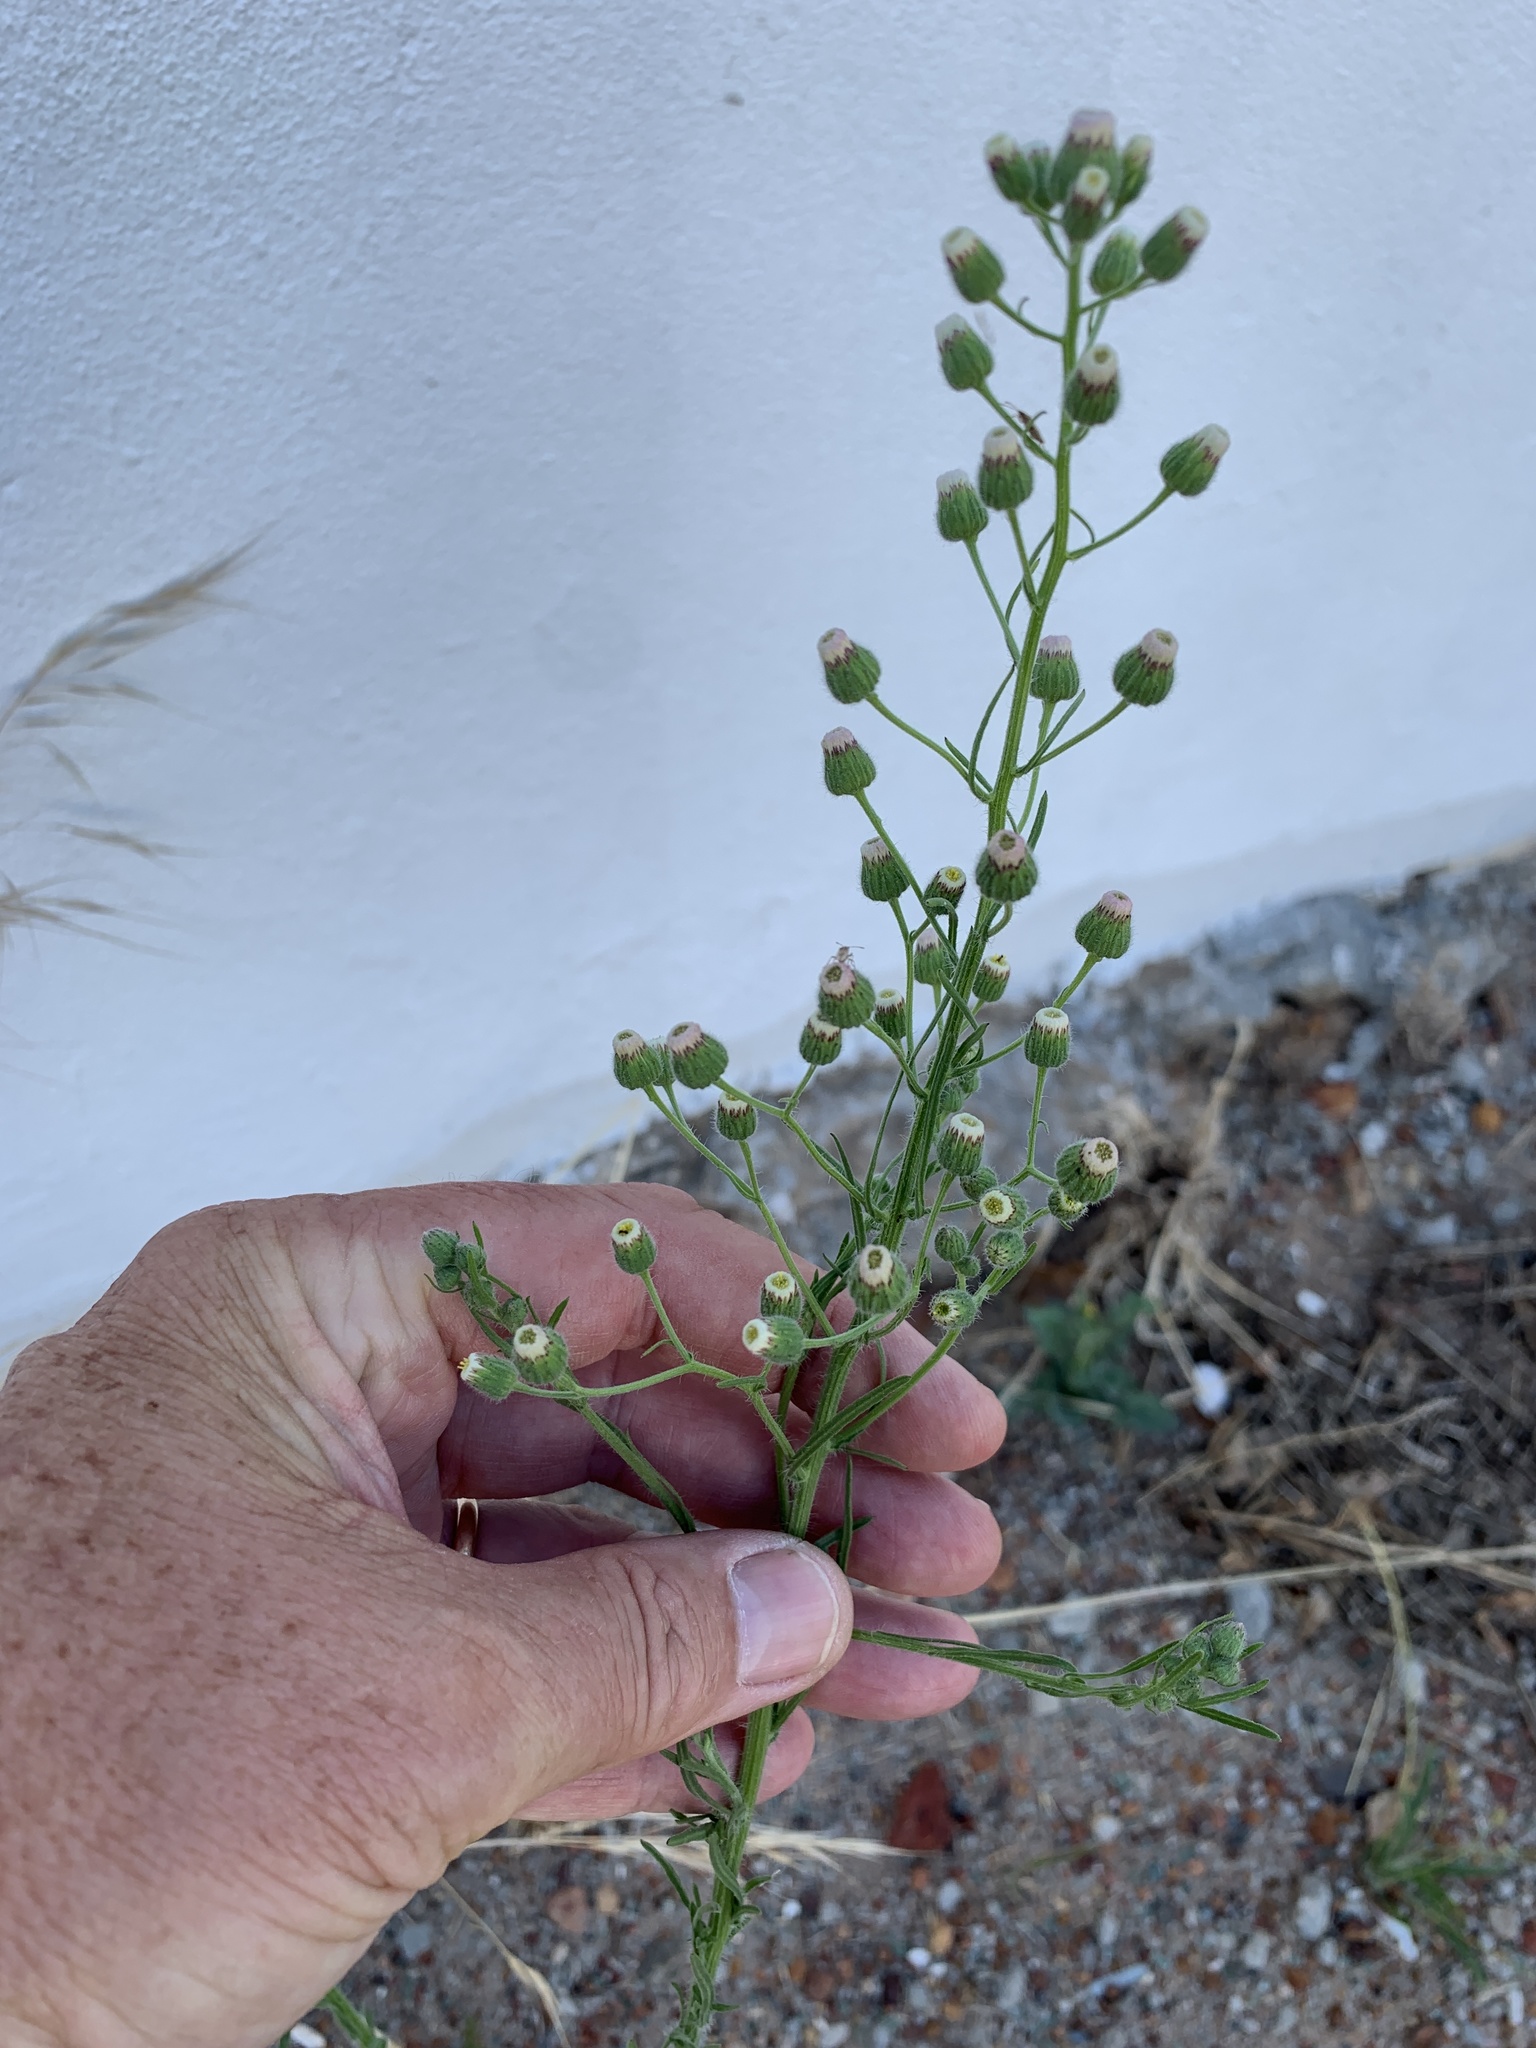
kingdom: Plantae
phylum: Tracheophyta
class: Magnoliopsida
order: Asterales
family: Asteraceae
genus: Erigeron
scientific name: Erigeron bonariensis
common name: Argentine fleabane
